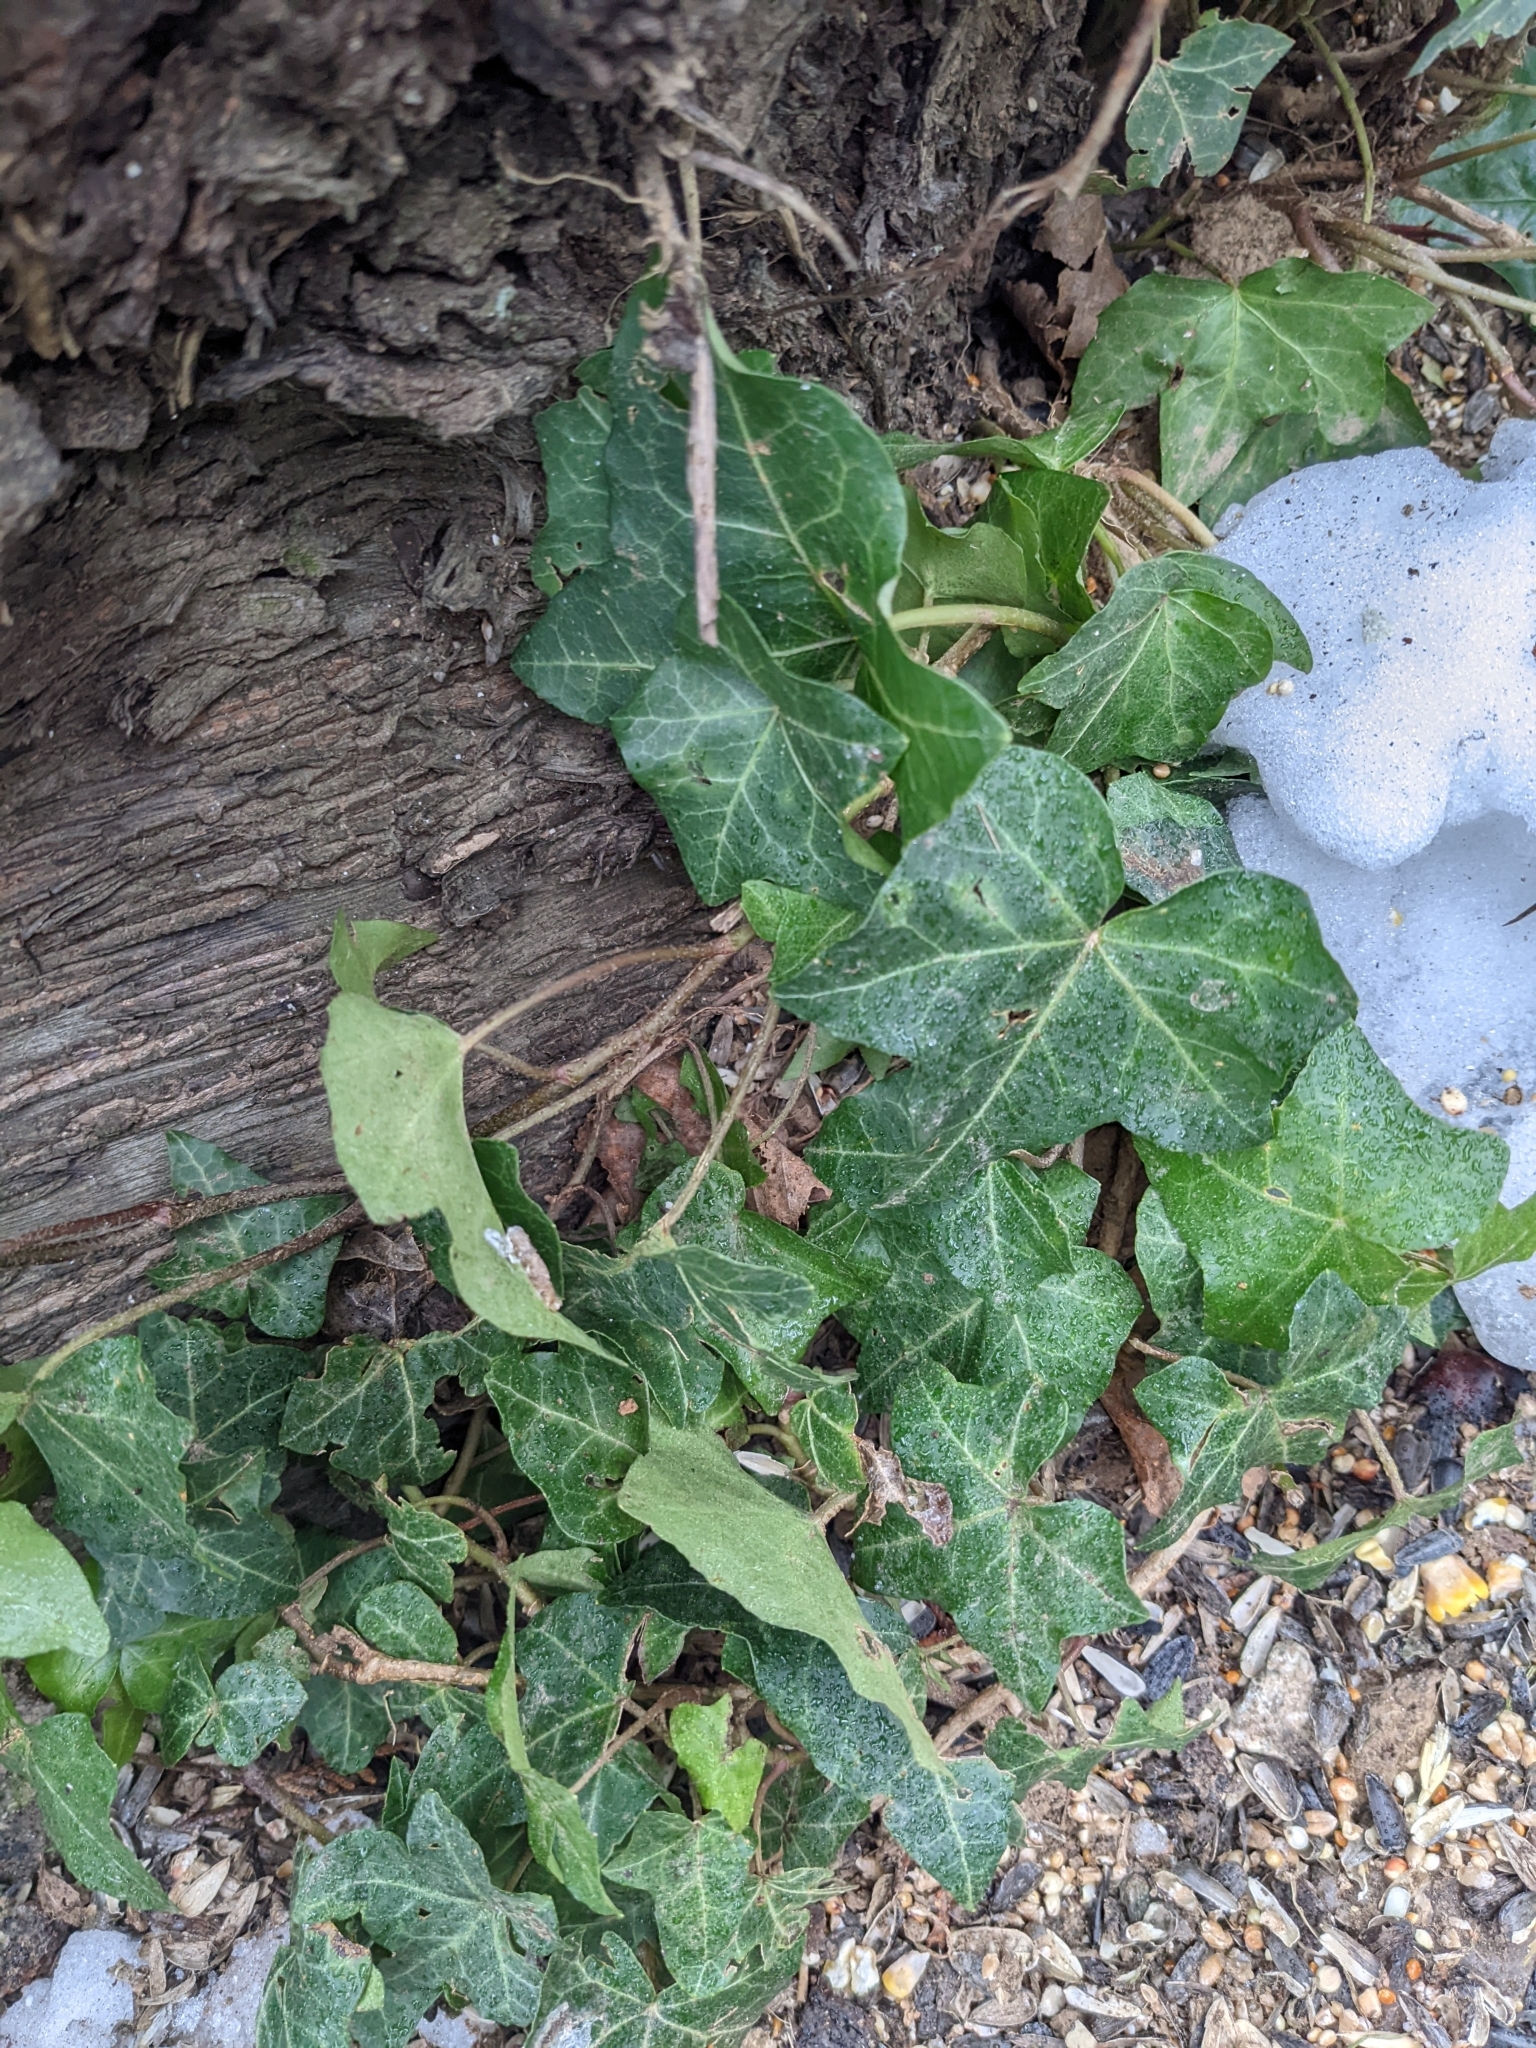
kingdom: Plantae
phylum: Tracheophyta
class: Magnoliopsida
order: Apiales
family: Araliaceae
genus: Hedera
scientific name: Hedera helix
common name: Ivy
